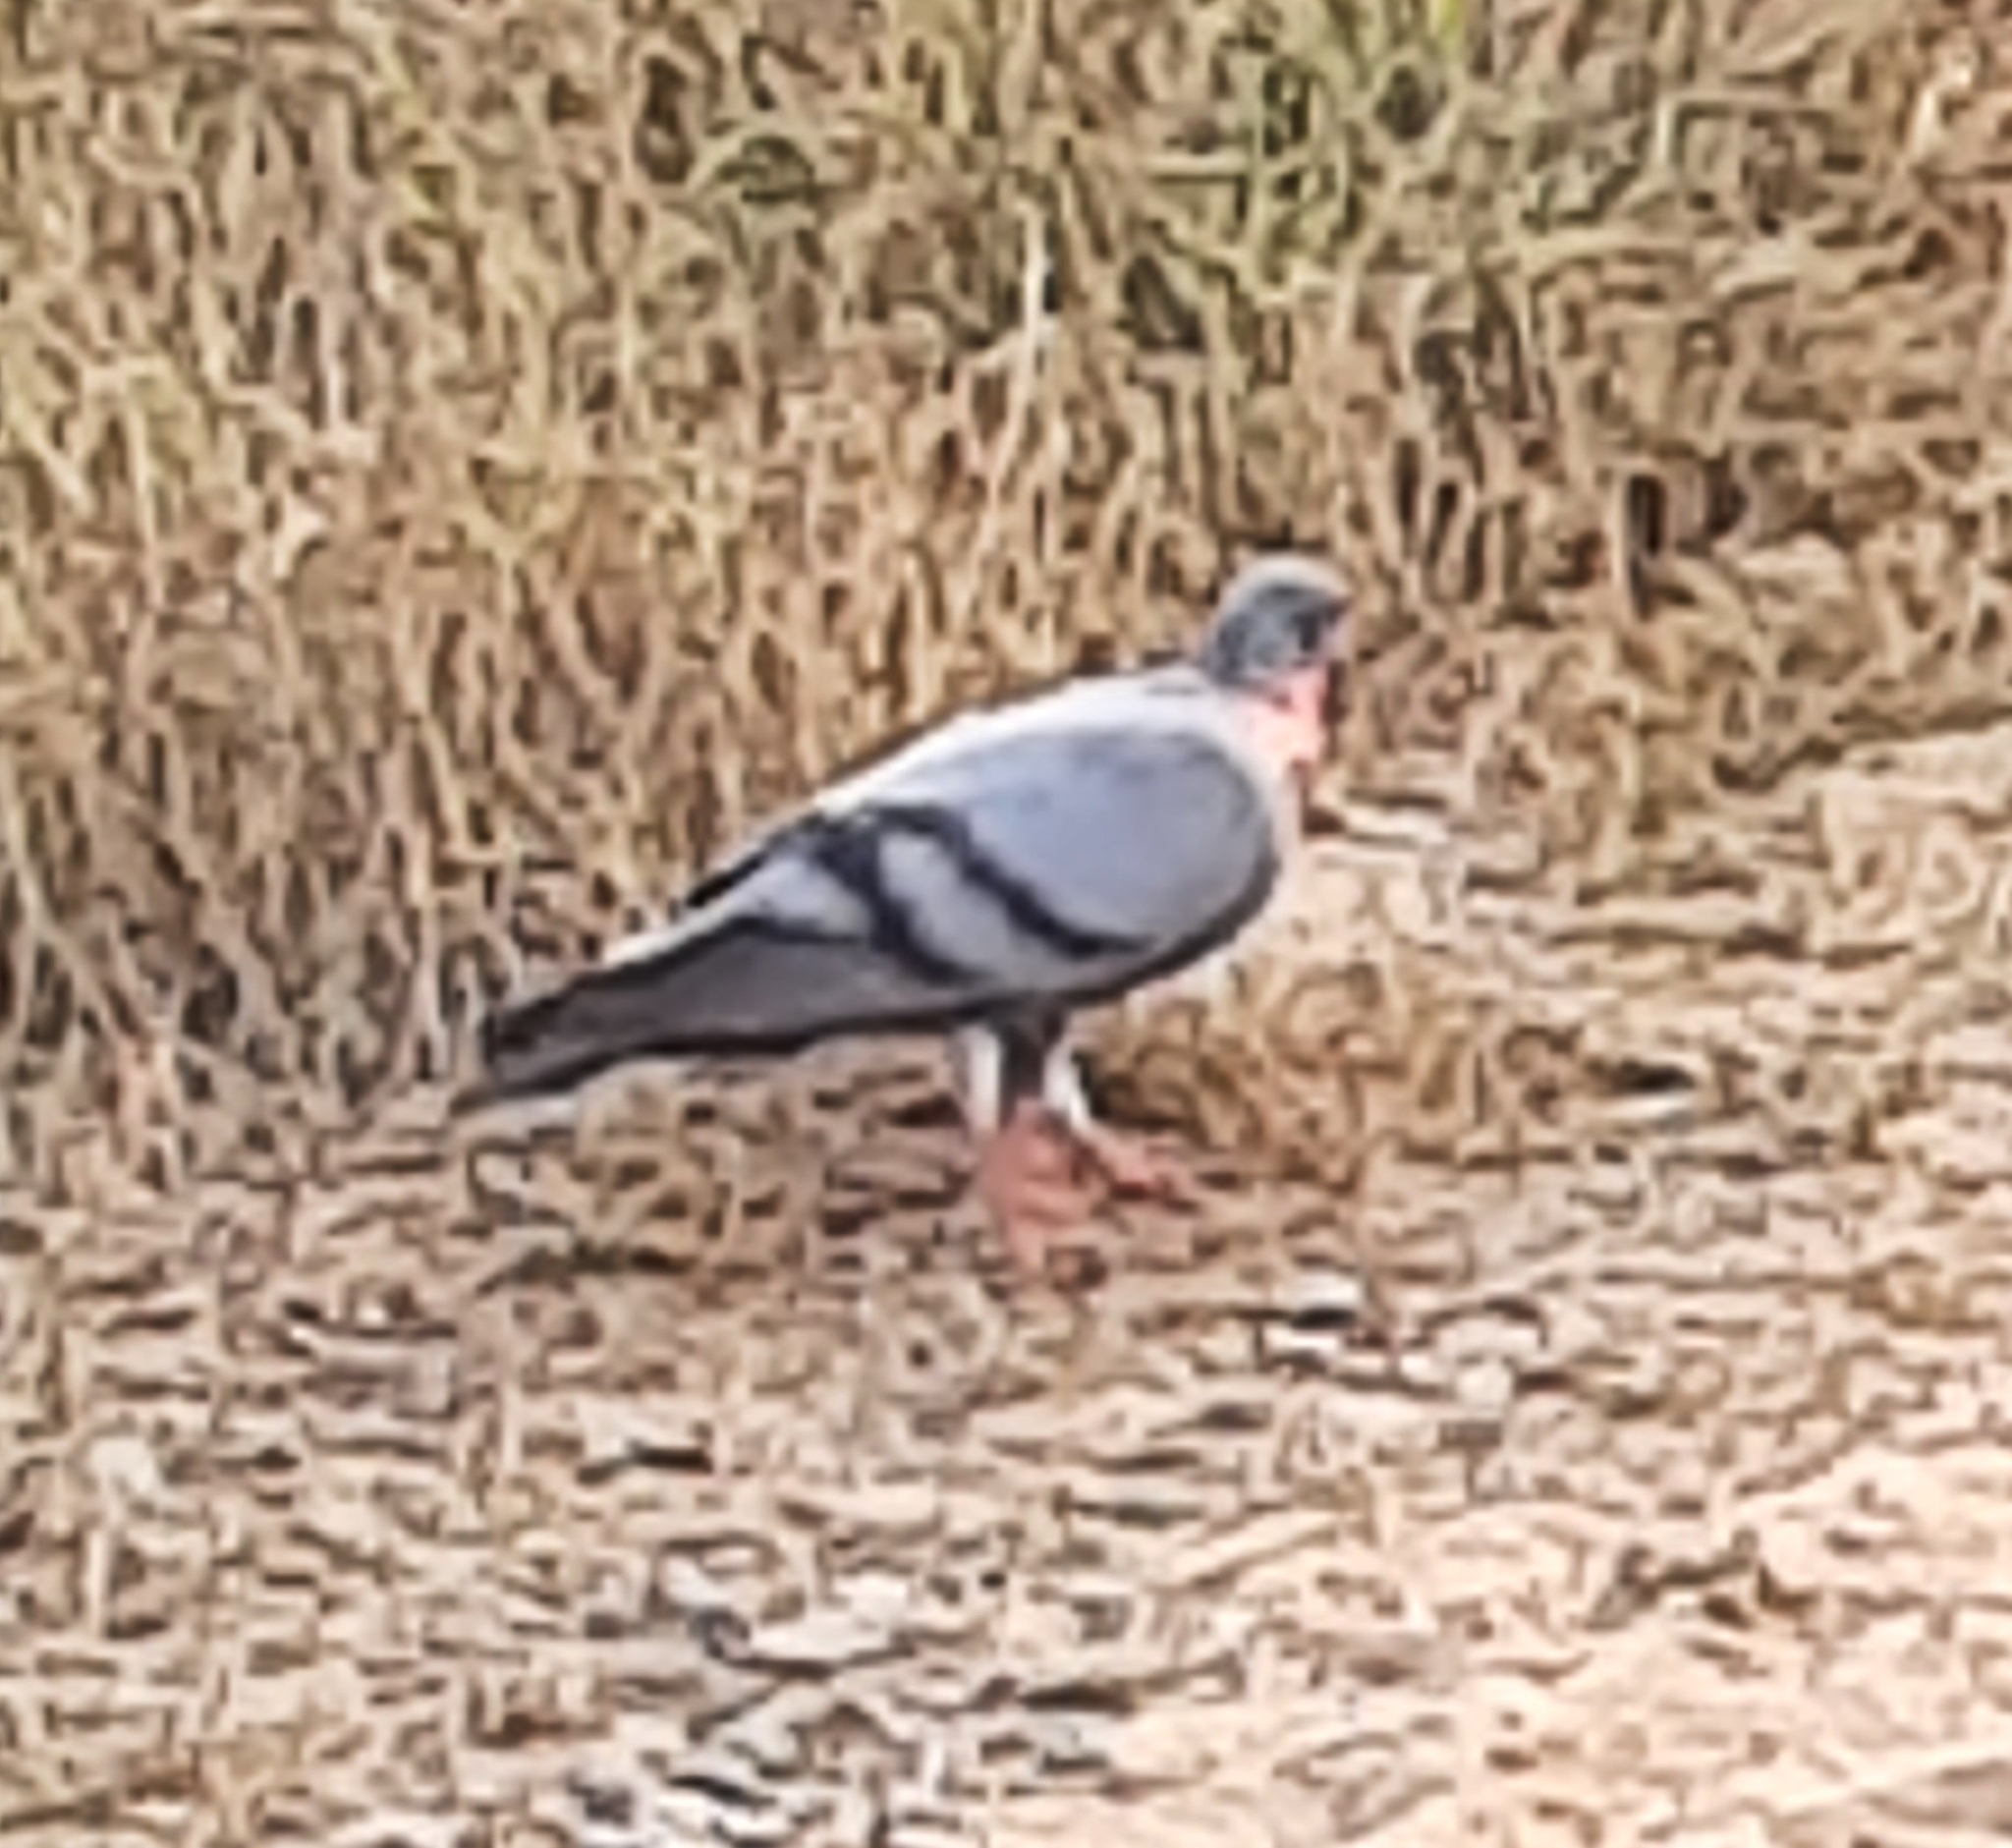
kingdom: Animalia
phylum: Chordata
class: Aves
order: Columbiformes
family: Columbidae
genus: Columba
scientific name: Columba livia
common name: Rock pigeon
